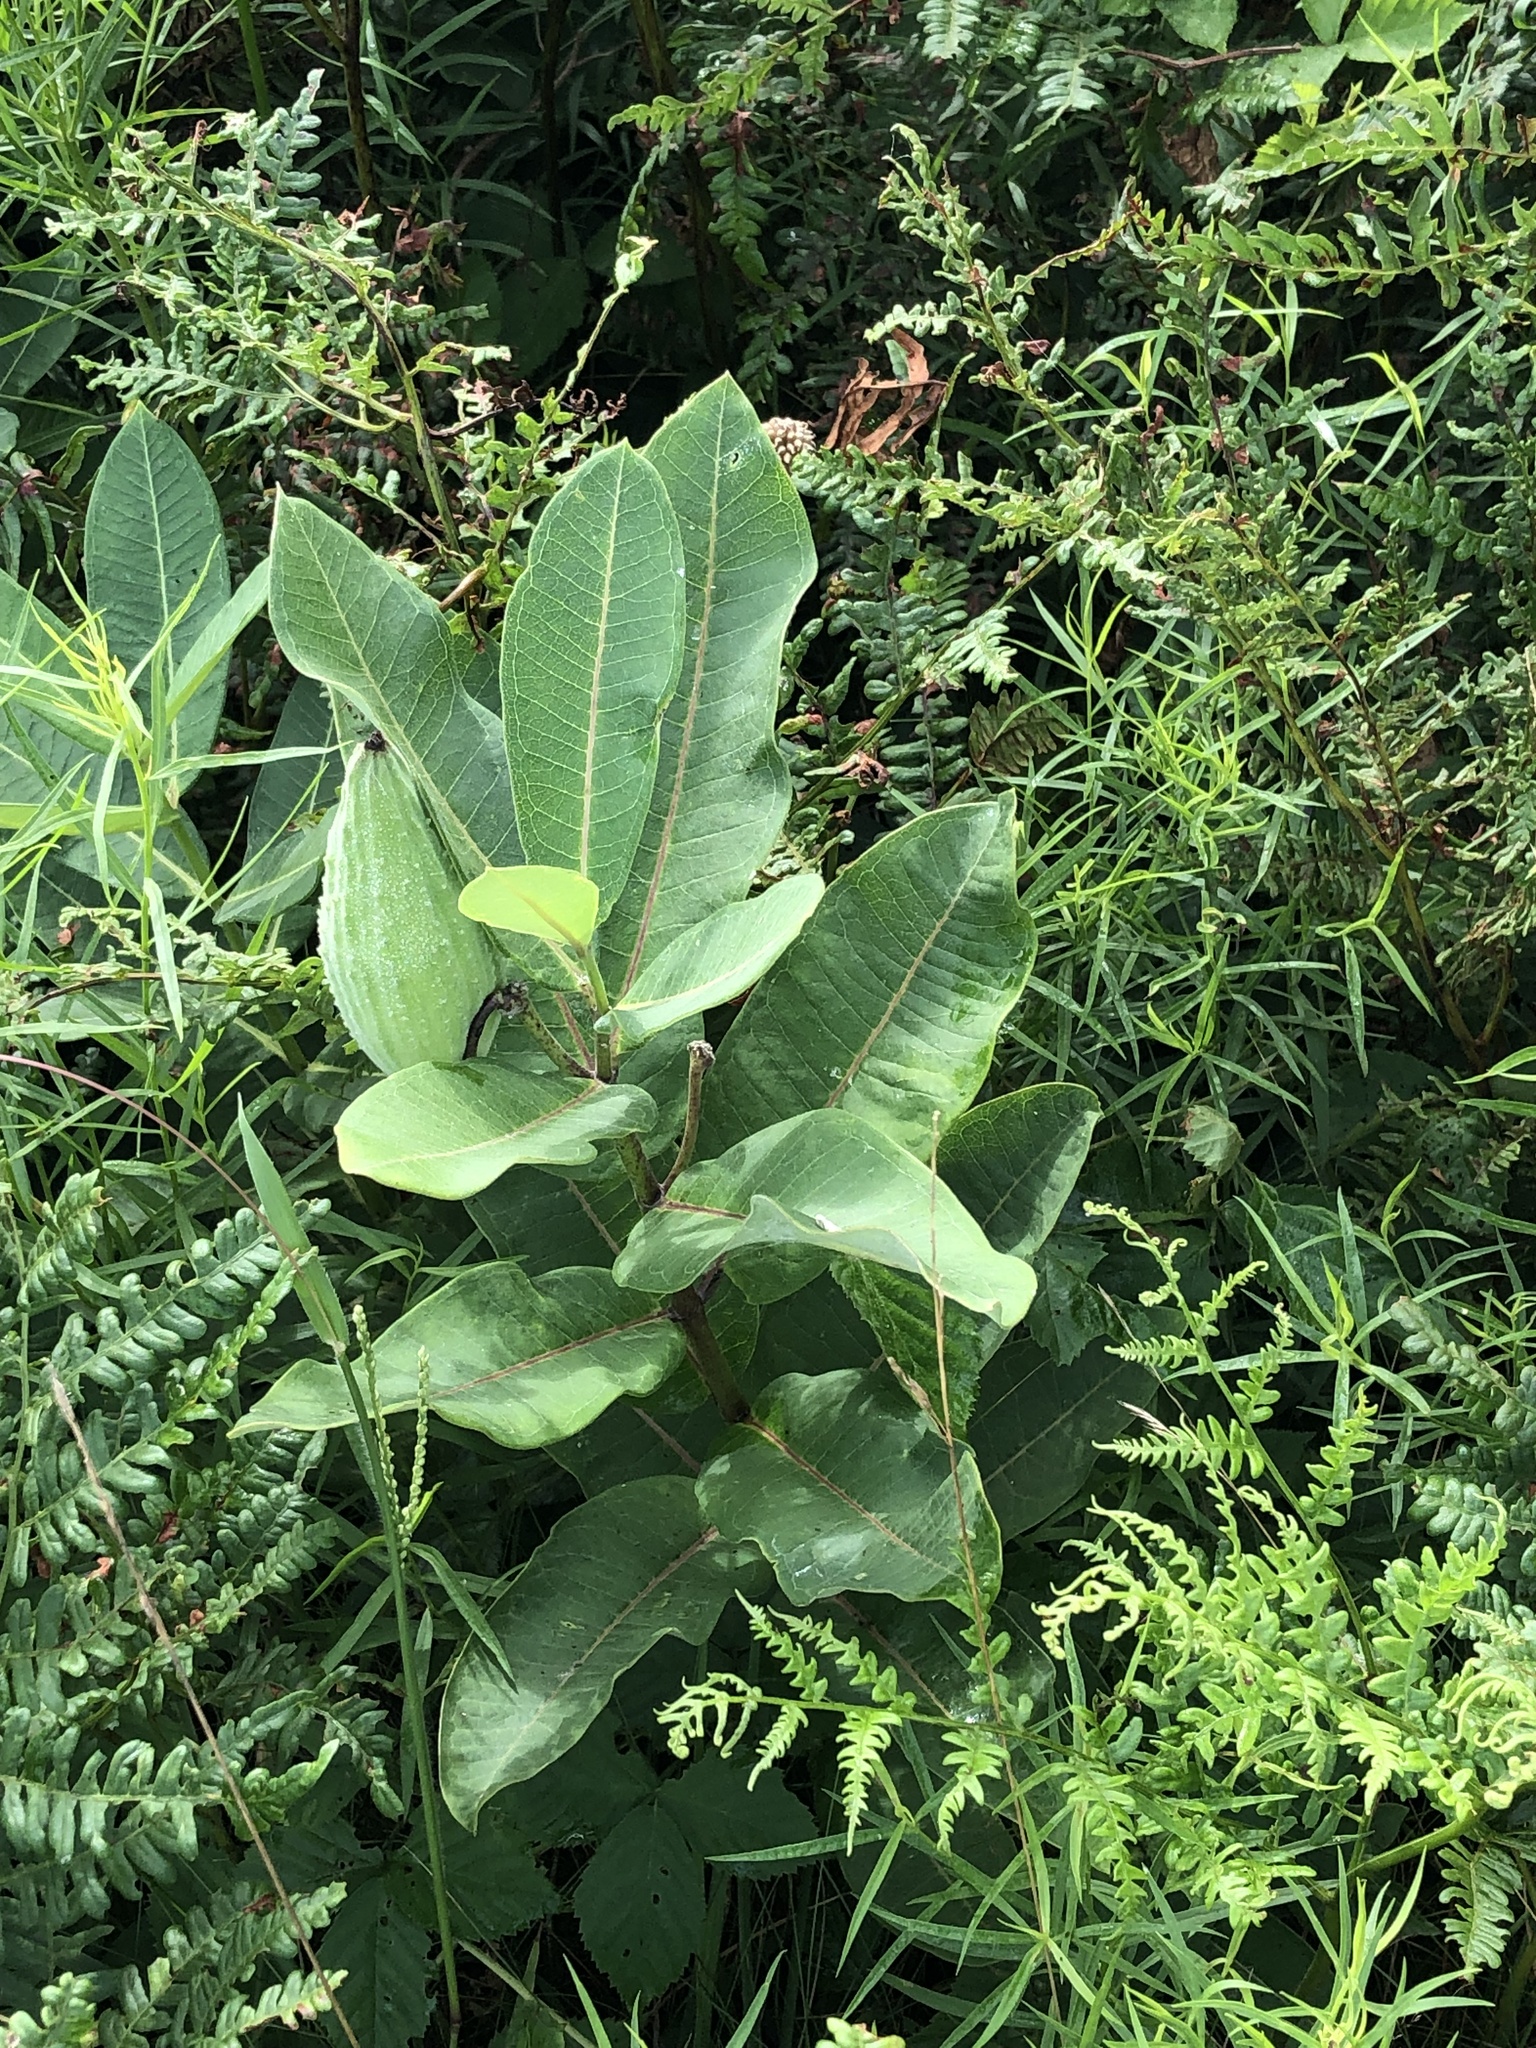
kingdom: Plantae
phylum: Tracheophyta
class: Magnoliopsida
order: Gentianales
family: Apocynaceae
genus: Asclepias
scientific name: Asclepias syriaca
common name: Common milkweed
